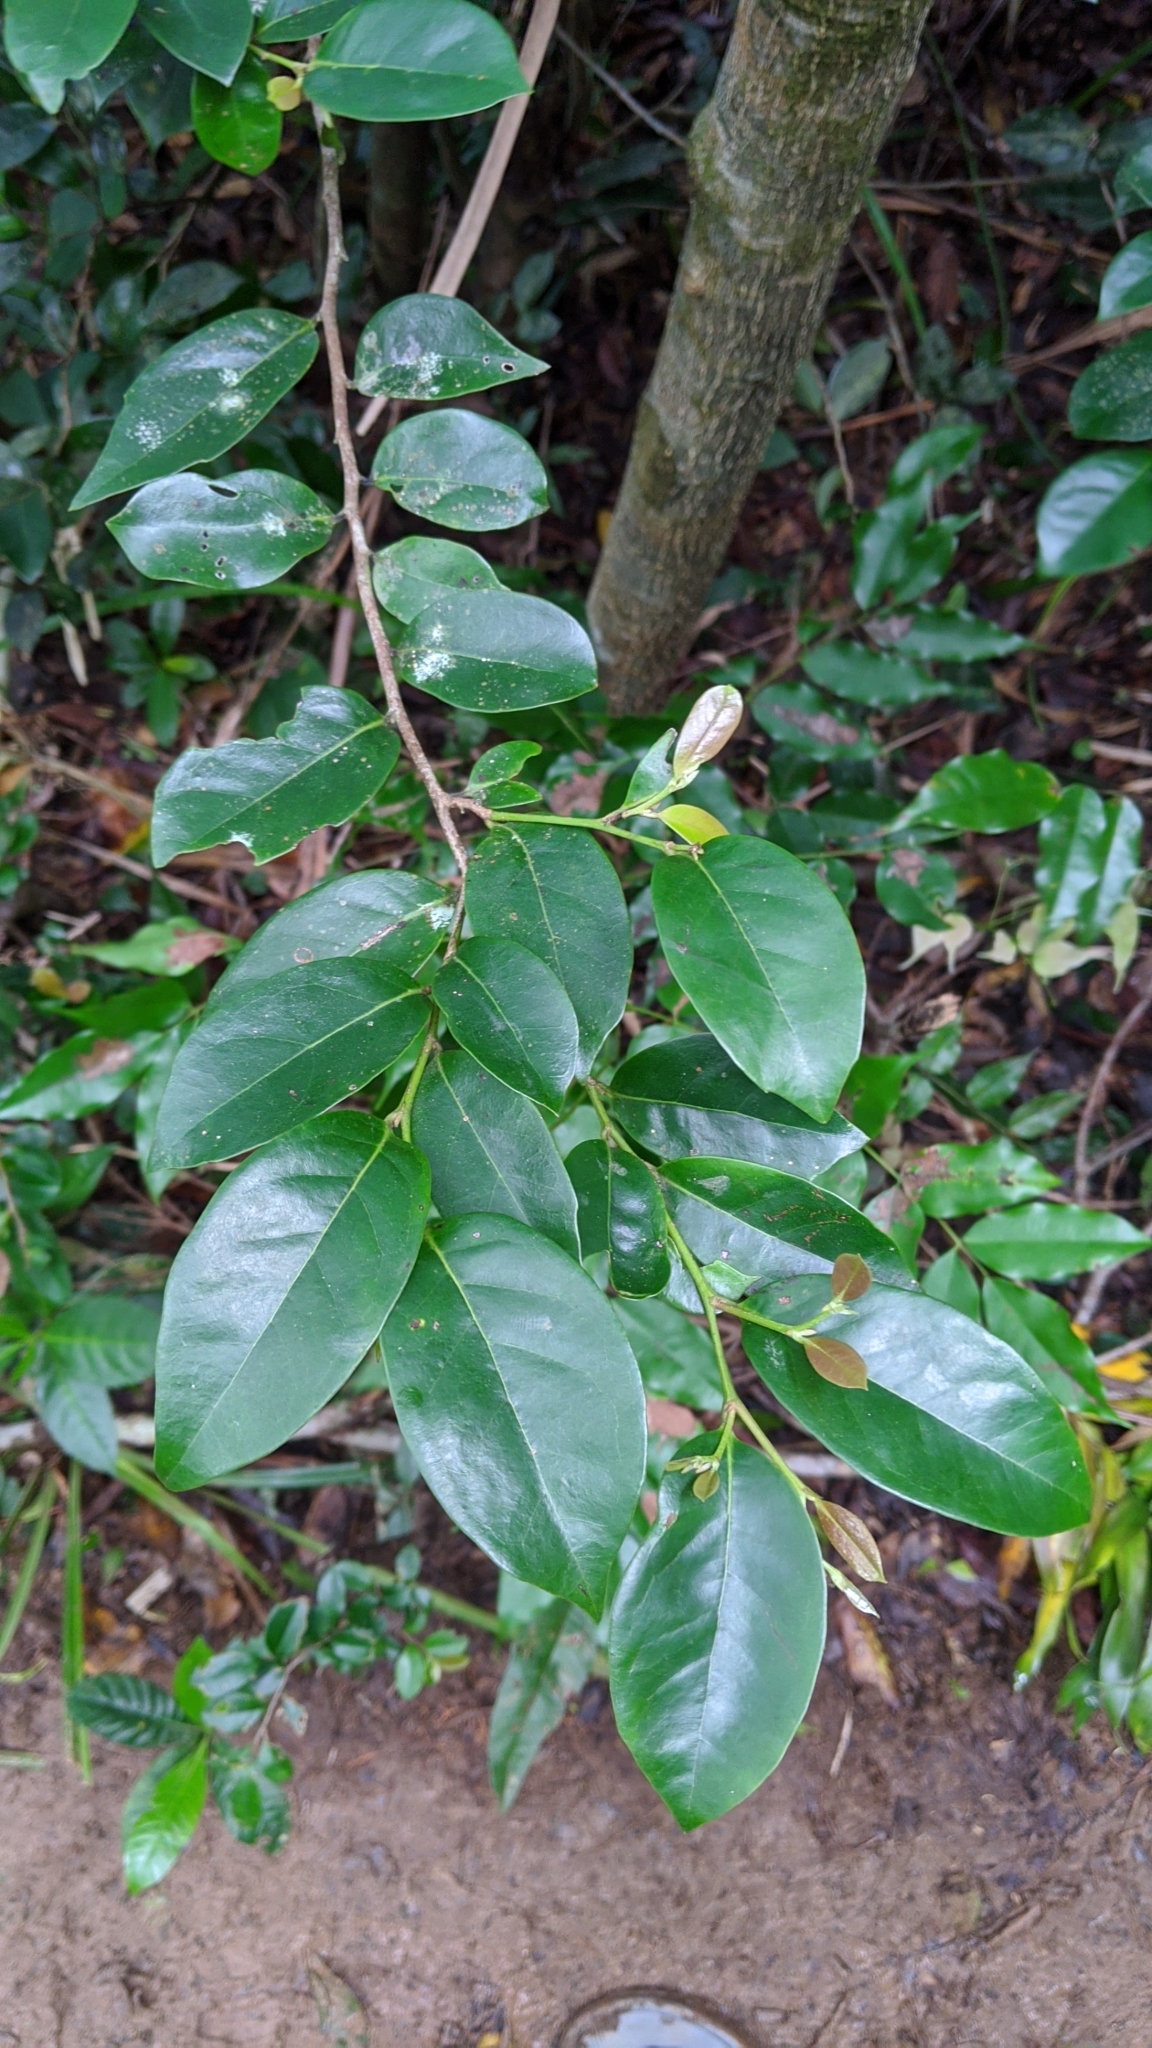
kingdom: Plantae
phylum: Tracheophyta
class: Magnoliopsida
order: Saxifragales
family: Hamamelidaceae
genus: Distylium
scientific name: Distylium racemosum
